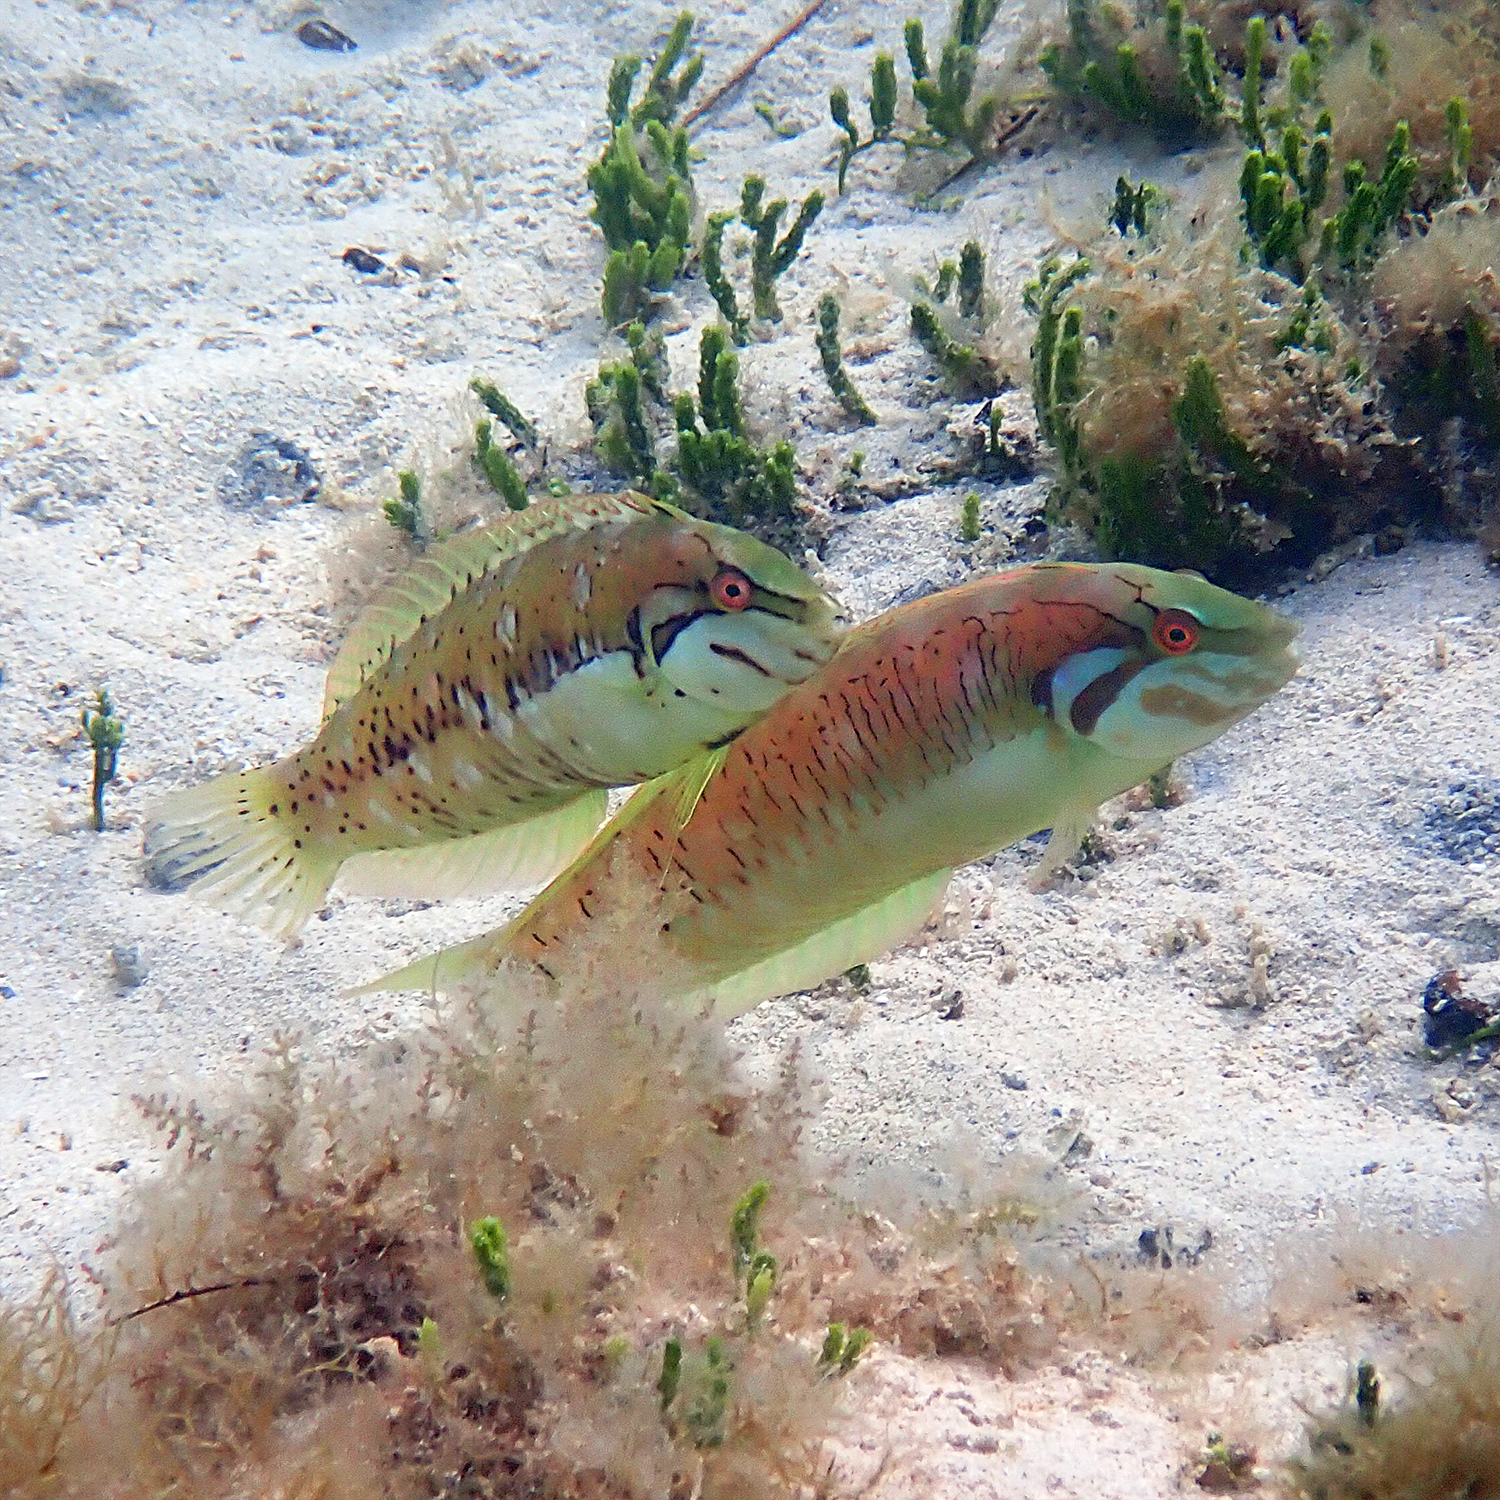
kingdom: Animalia
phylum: Chordata
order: Perciformes
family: Labridae
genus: Novaculoides
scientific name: Novaculoides macrolepidotus
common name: Seagrass wrasse
